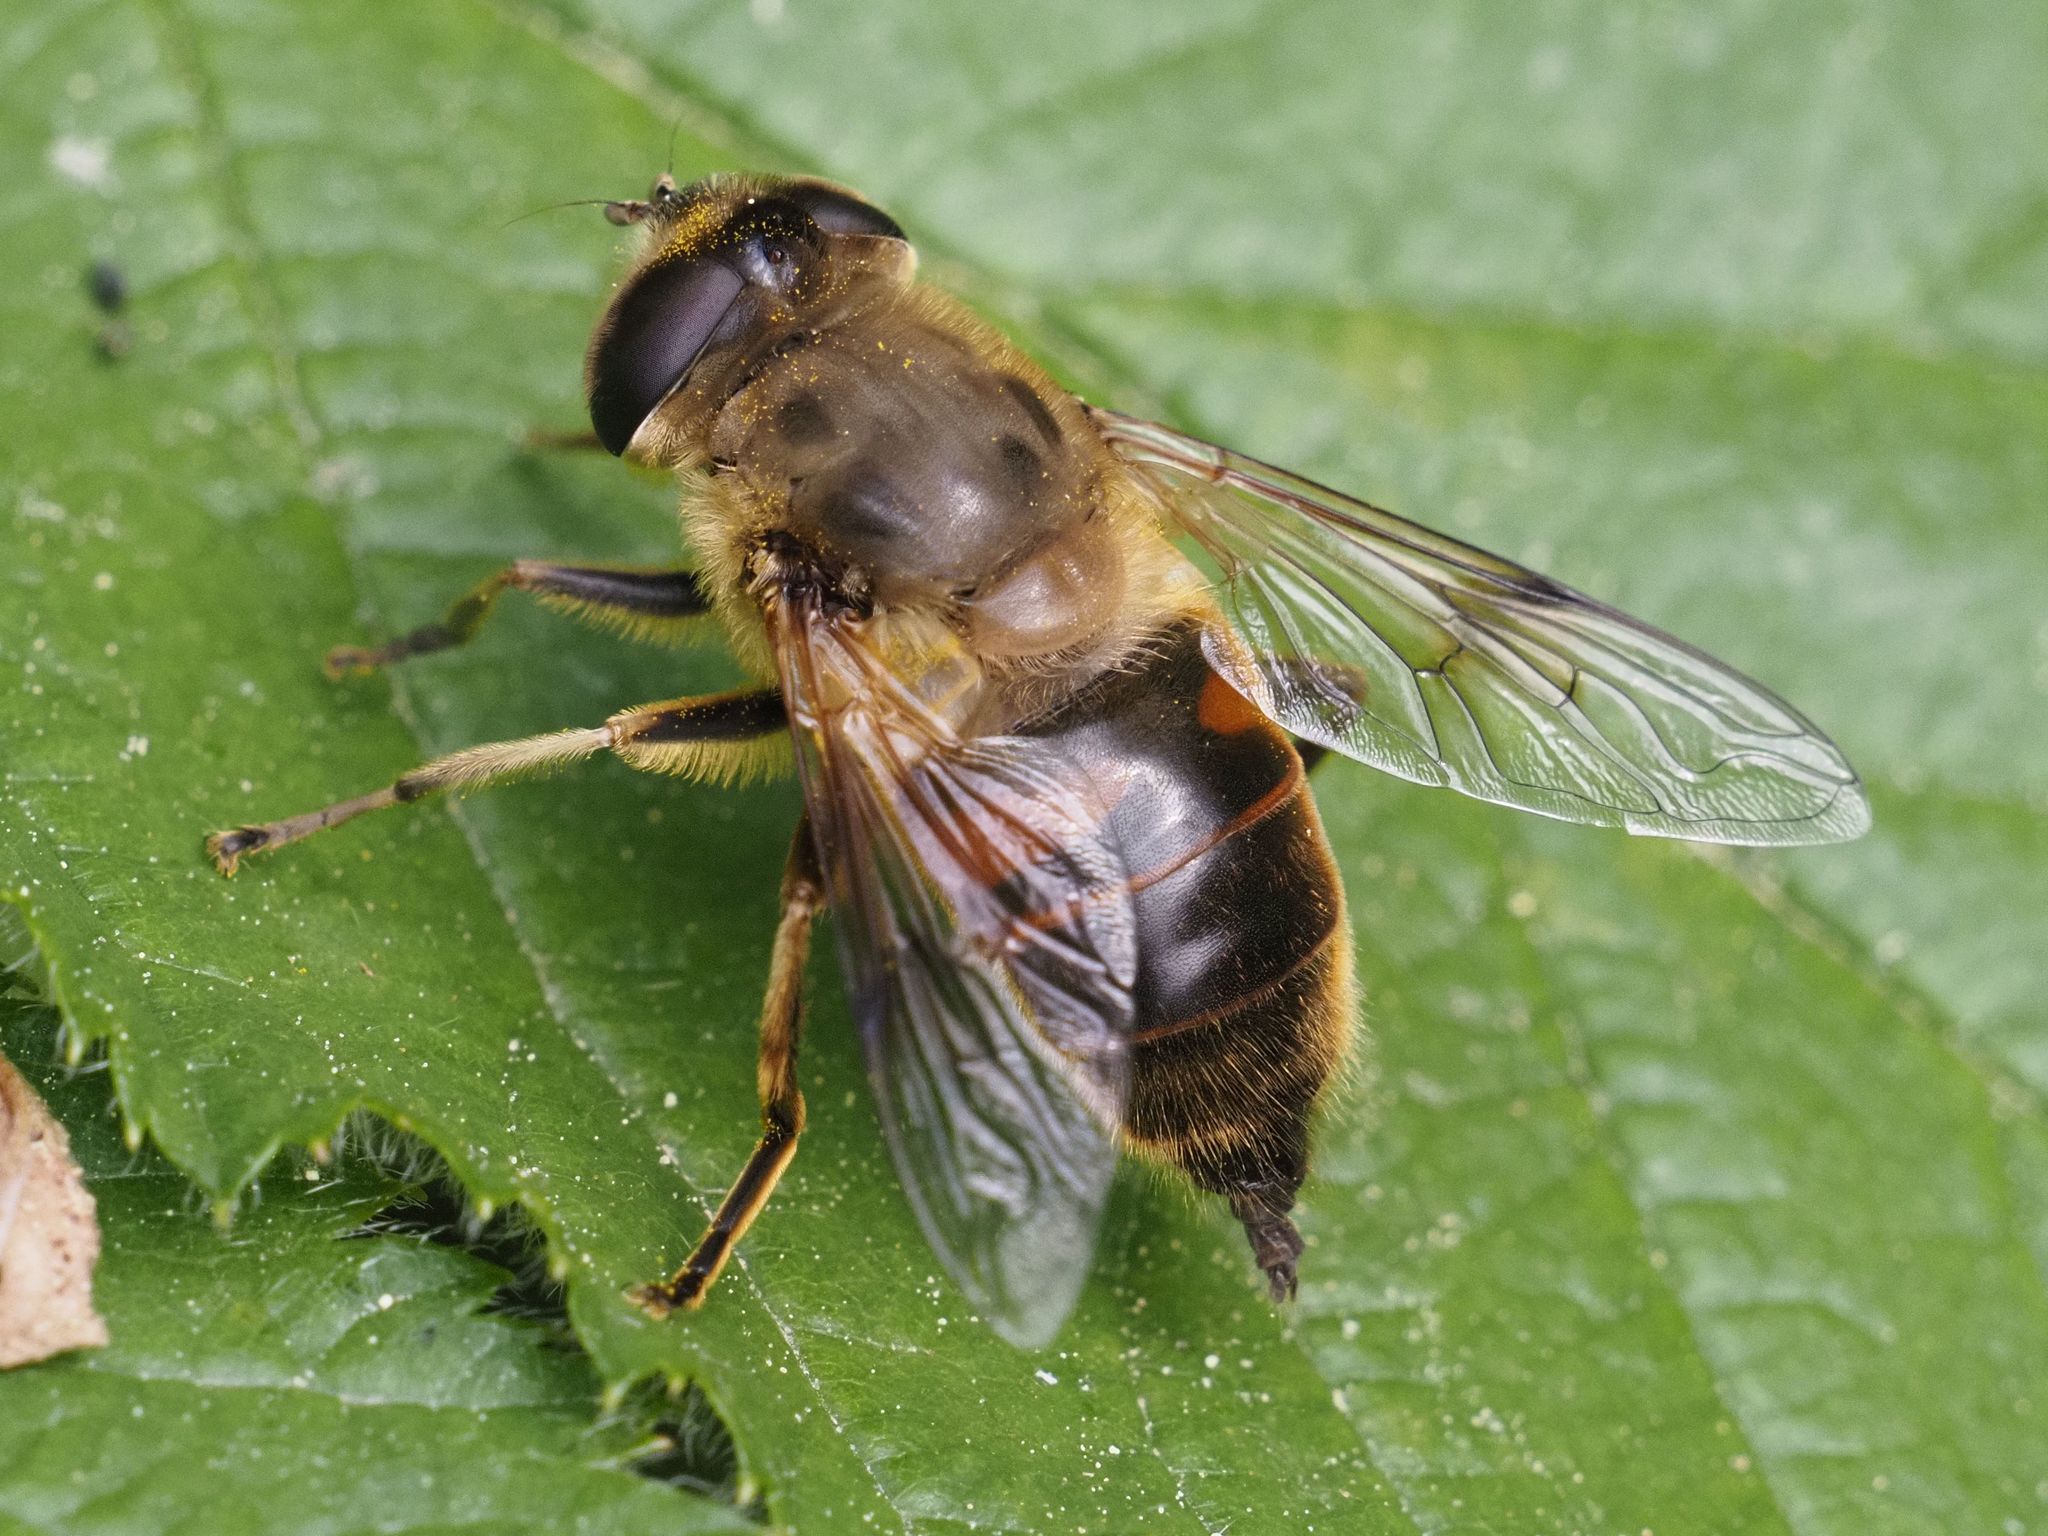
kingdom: Animalia
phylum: Arthropoda
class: Insecta
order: Diptera
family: Syrphidae
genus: Eristalis
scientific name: Eristalis tenax
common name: Drone fly
